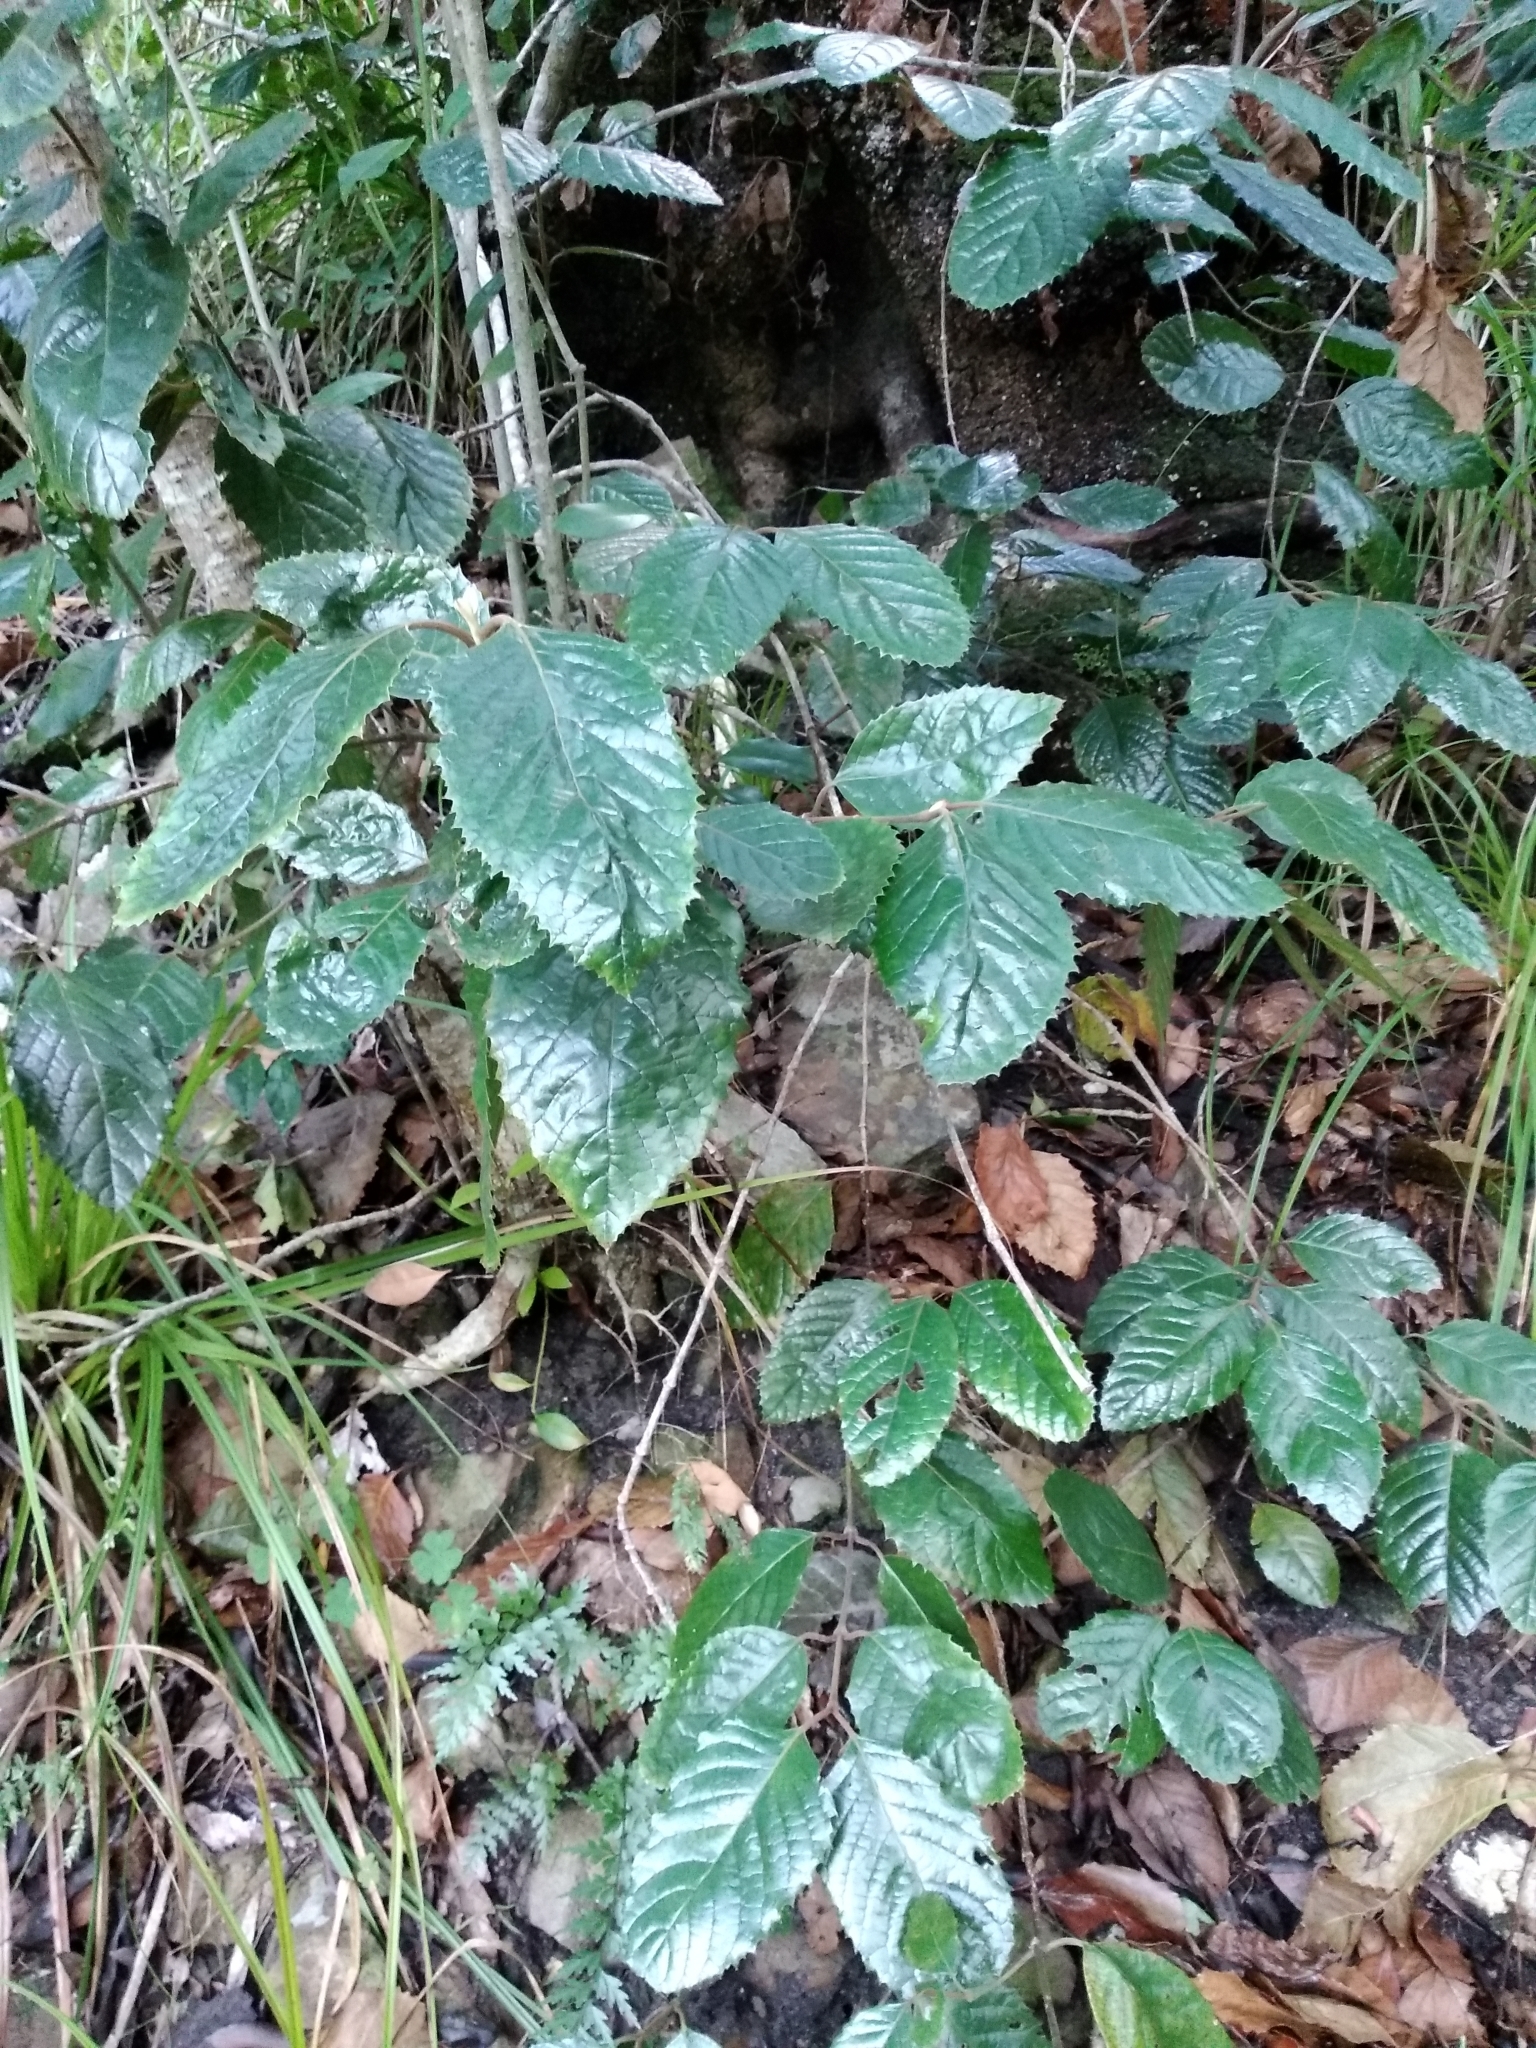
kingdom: Plantae
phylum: Tracheophyta
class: Magnoliopsida
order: Cornales
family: Curtisiaceae
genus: Curtisia
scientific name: Curtisia dentata
